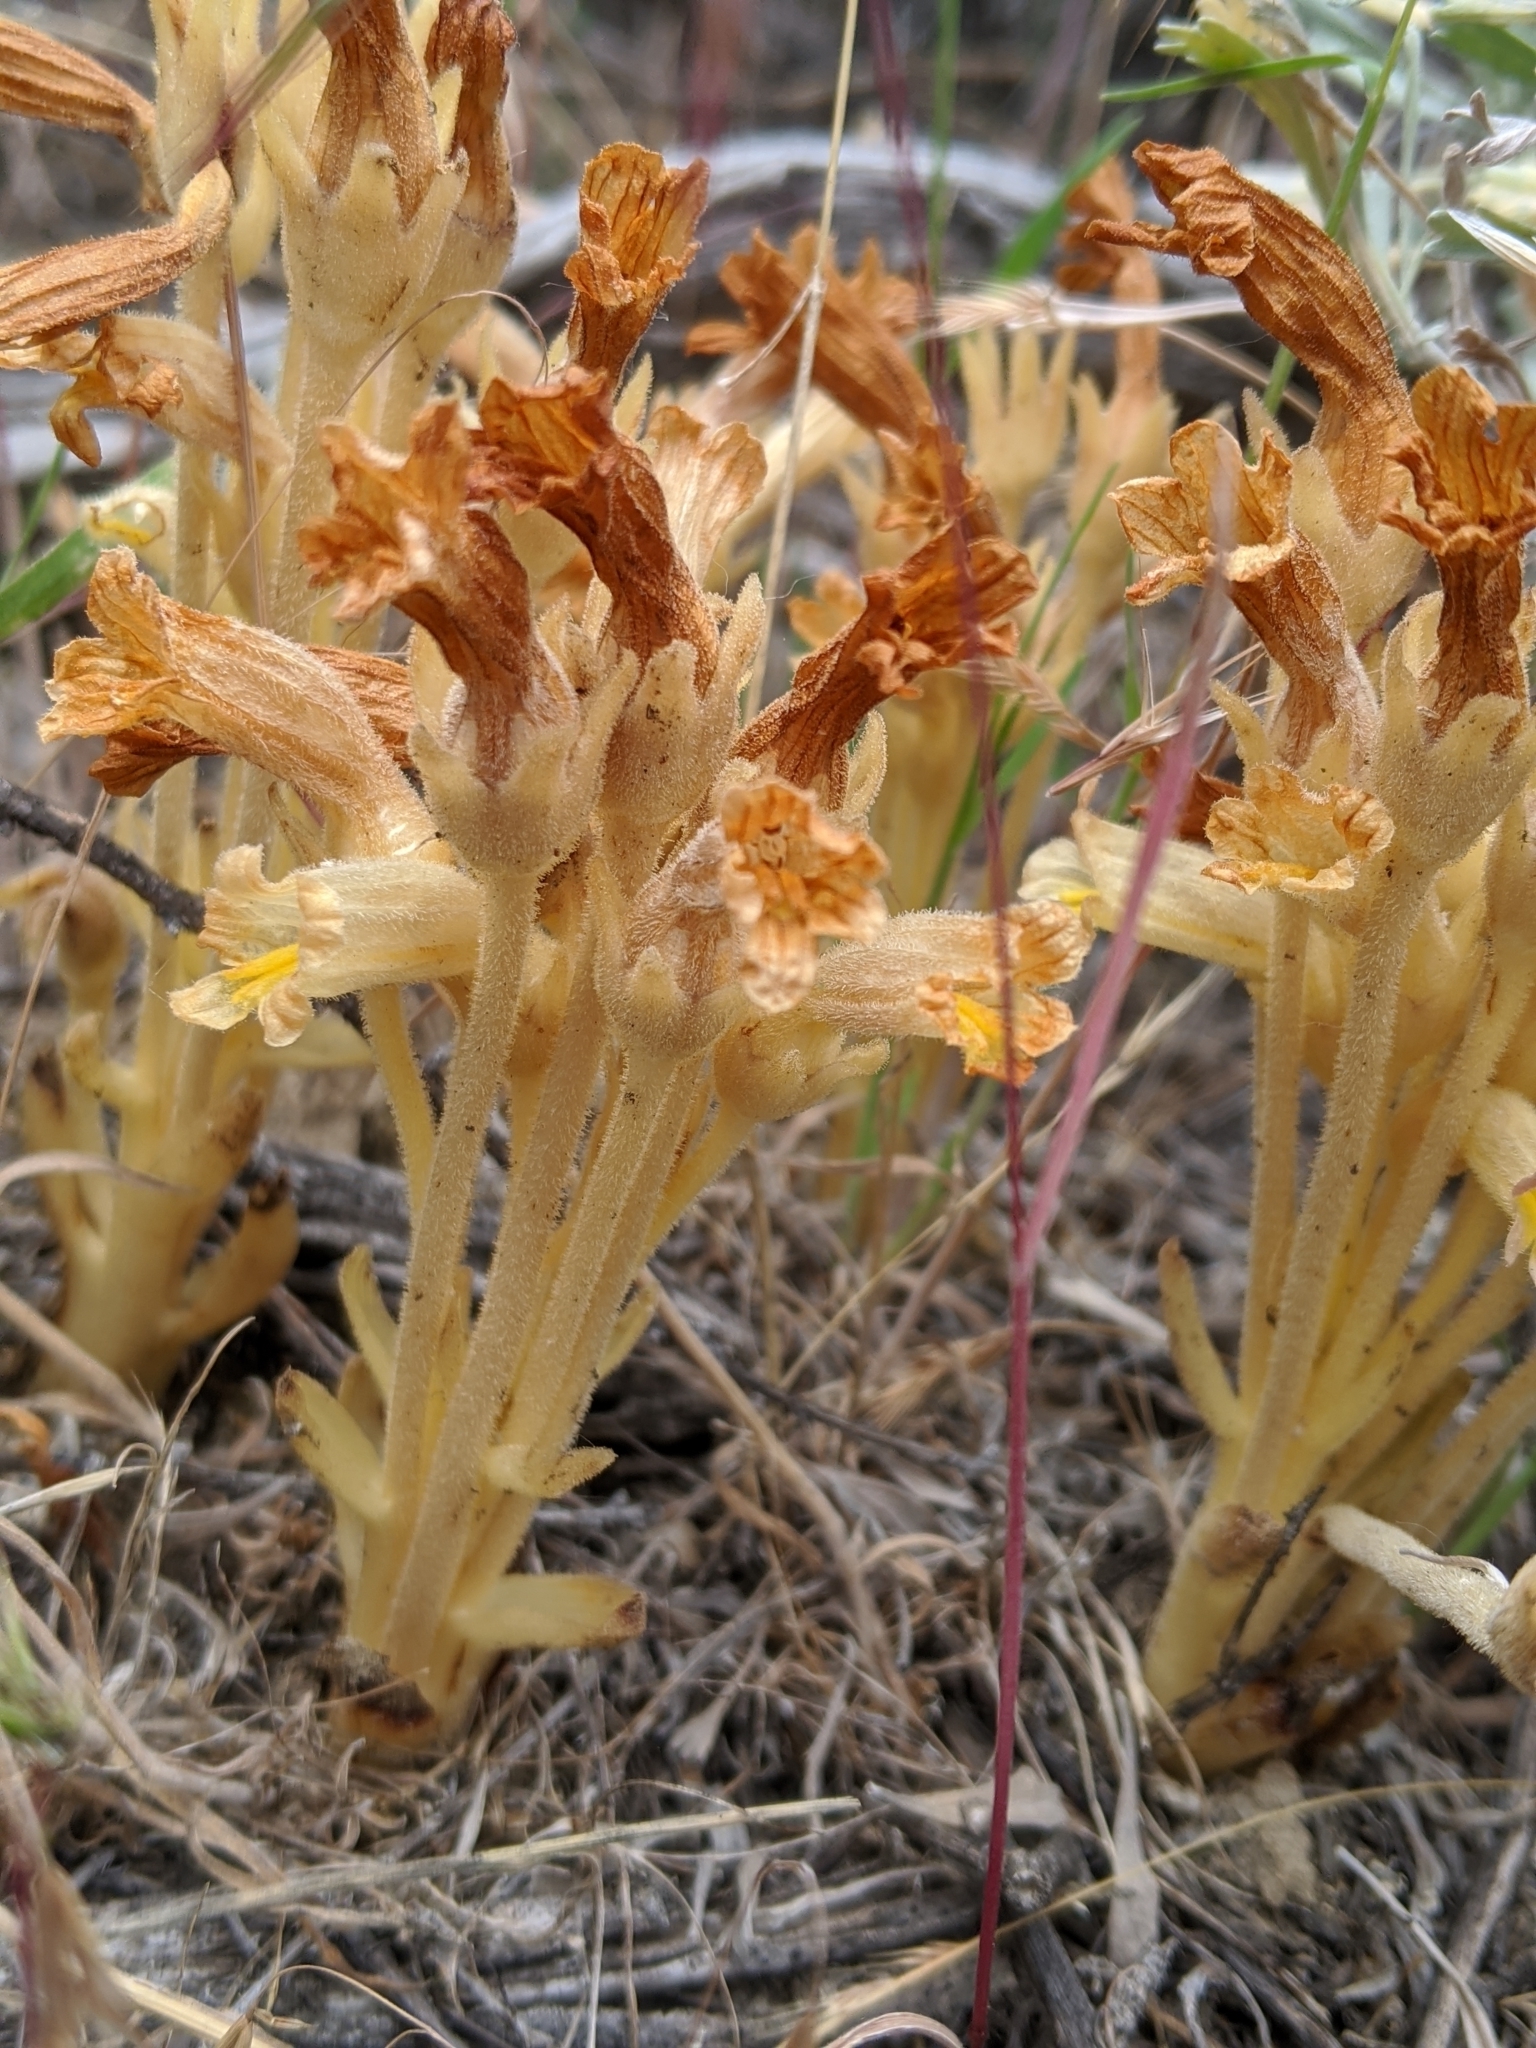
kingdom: Plantae
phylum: Tracheophyta
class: Magnoliopsida
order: Lamiales
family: Orobanchaceae
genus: Aphyllon
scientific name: Aphyllon fasciculatum
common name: Clustered broomrape
